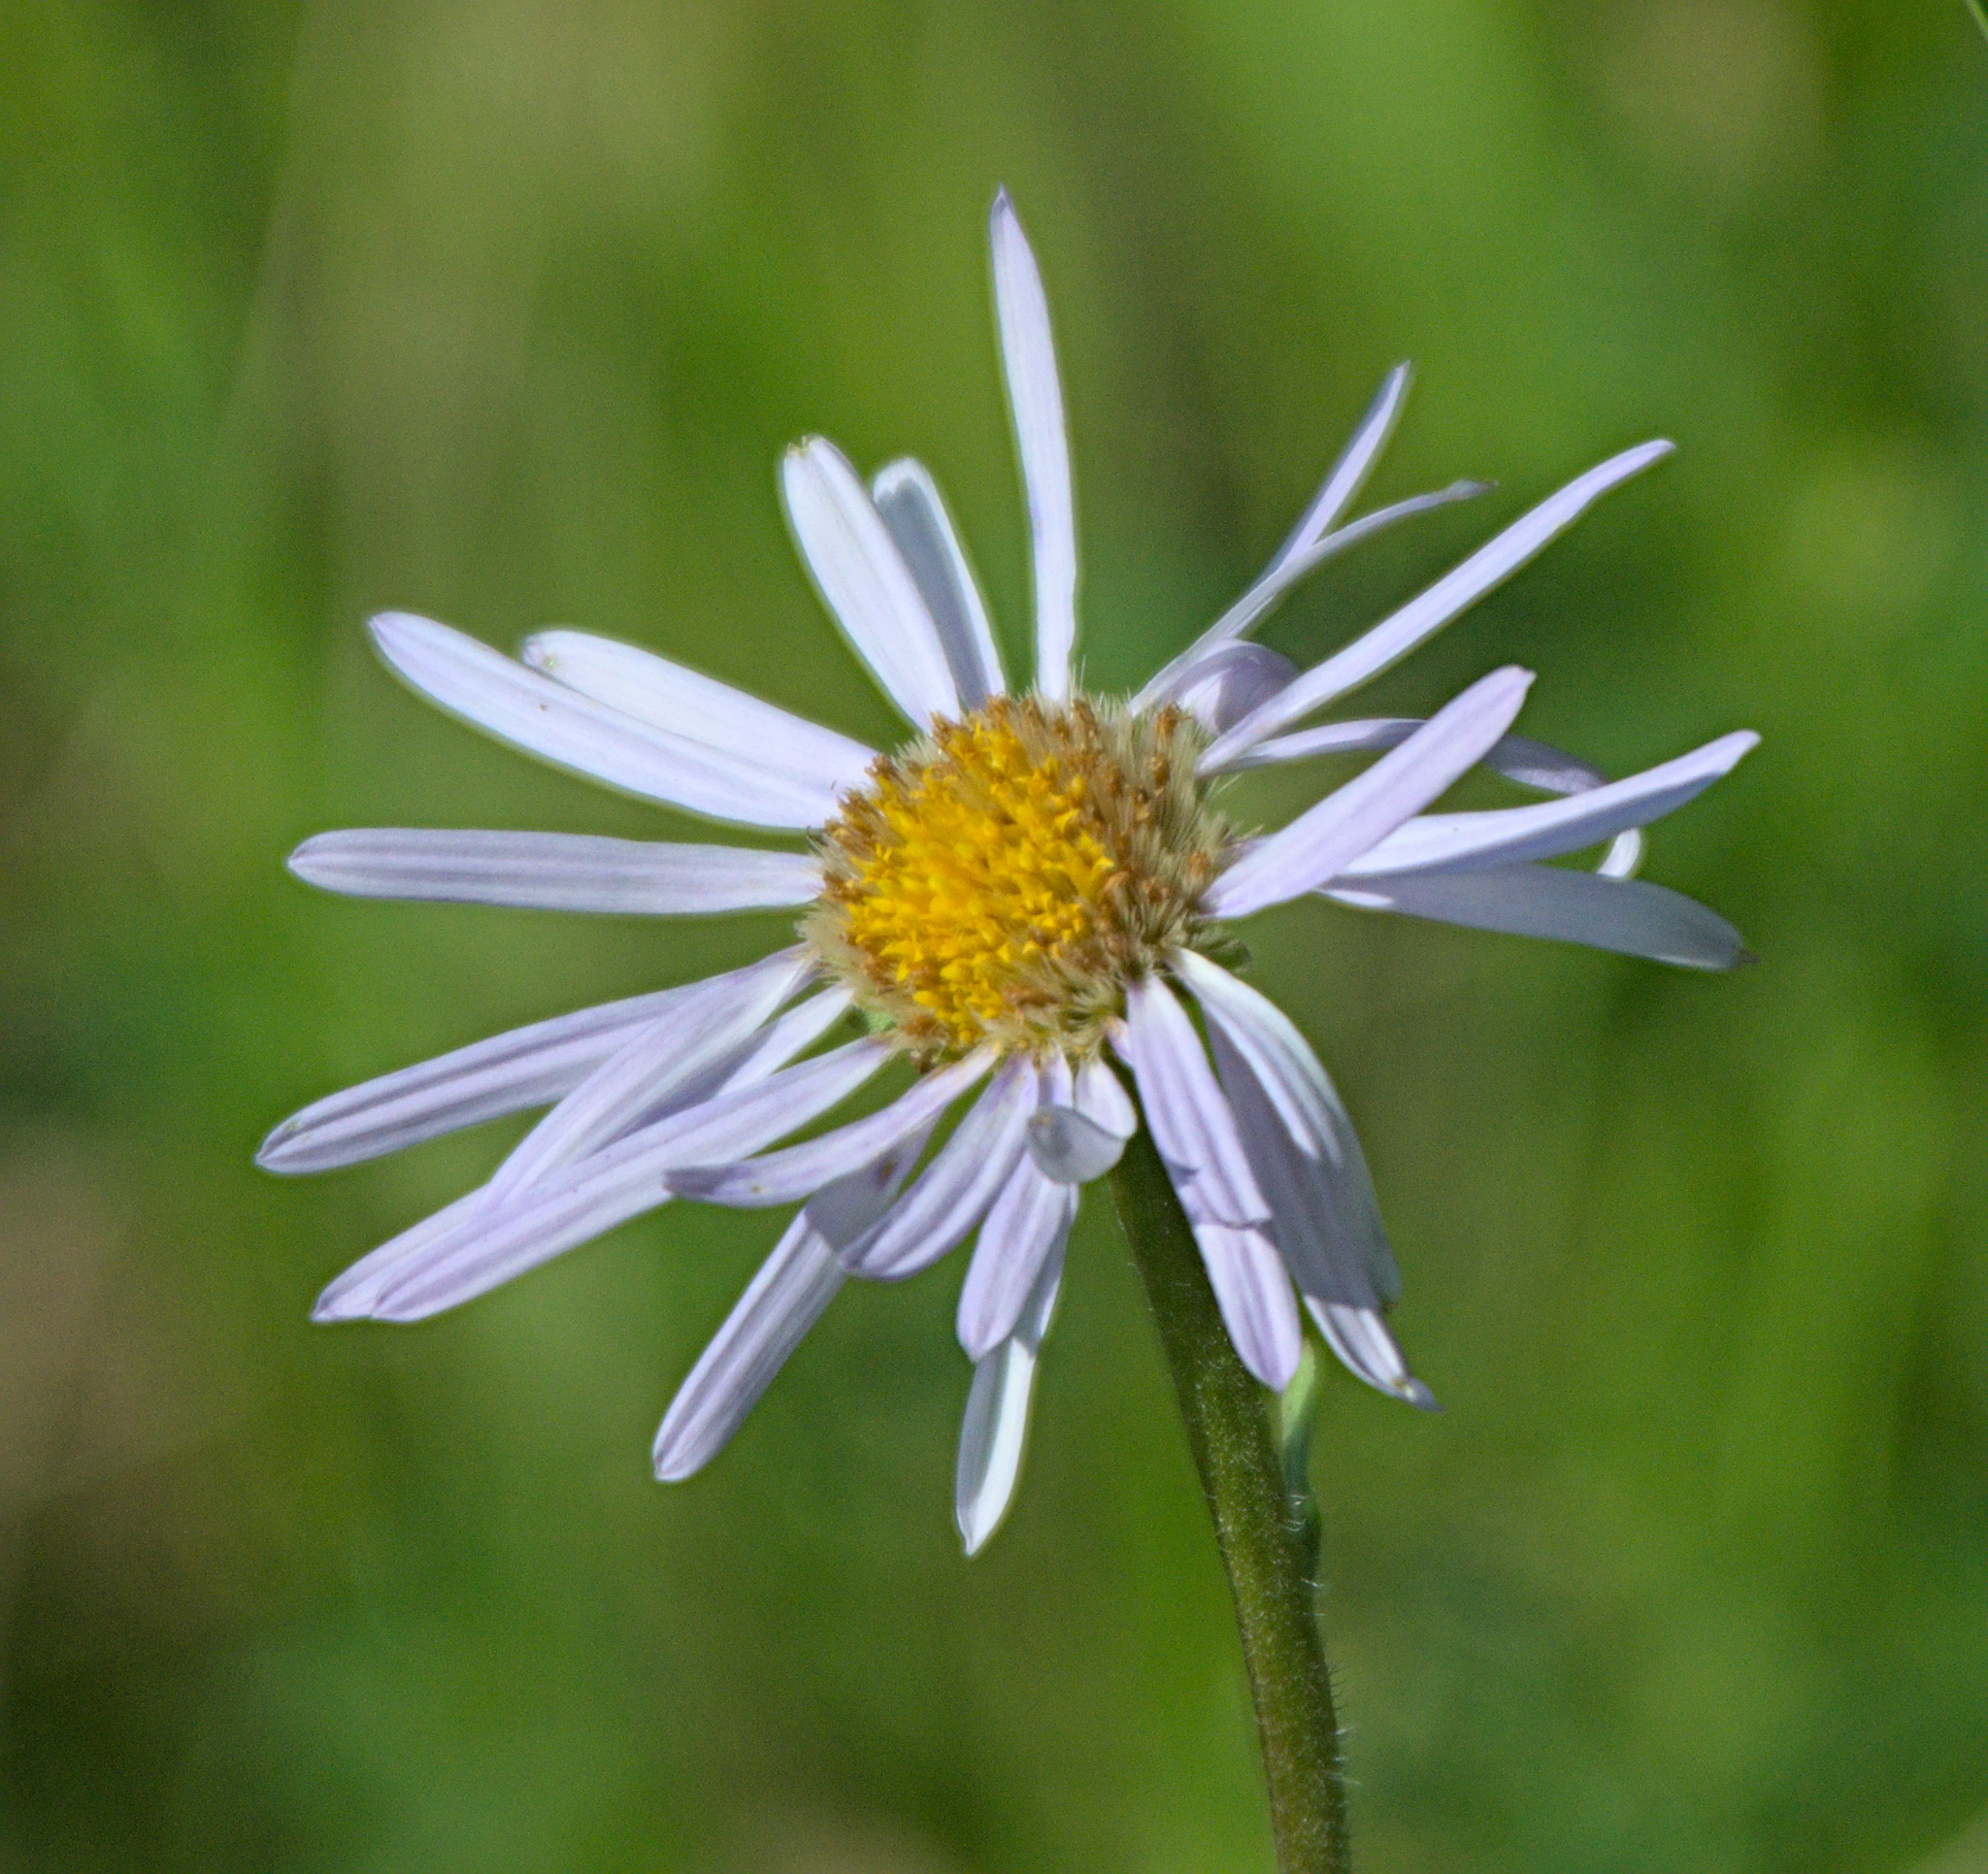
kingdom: Plantae
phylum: Tracheophyta
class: Magnoliopsida
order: Asterales
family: Asteraceae
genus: Aster
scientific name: Aster alpinus
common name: Alpine aster
